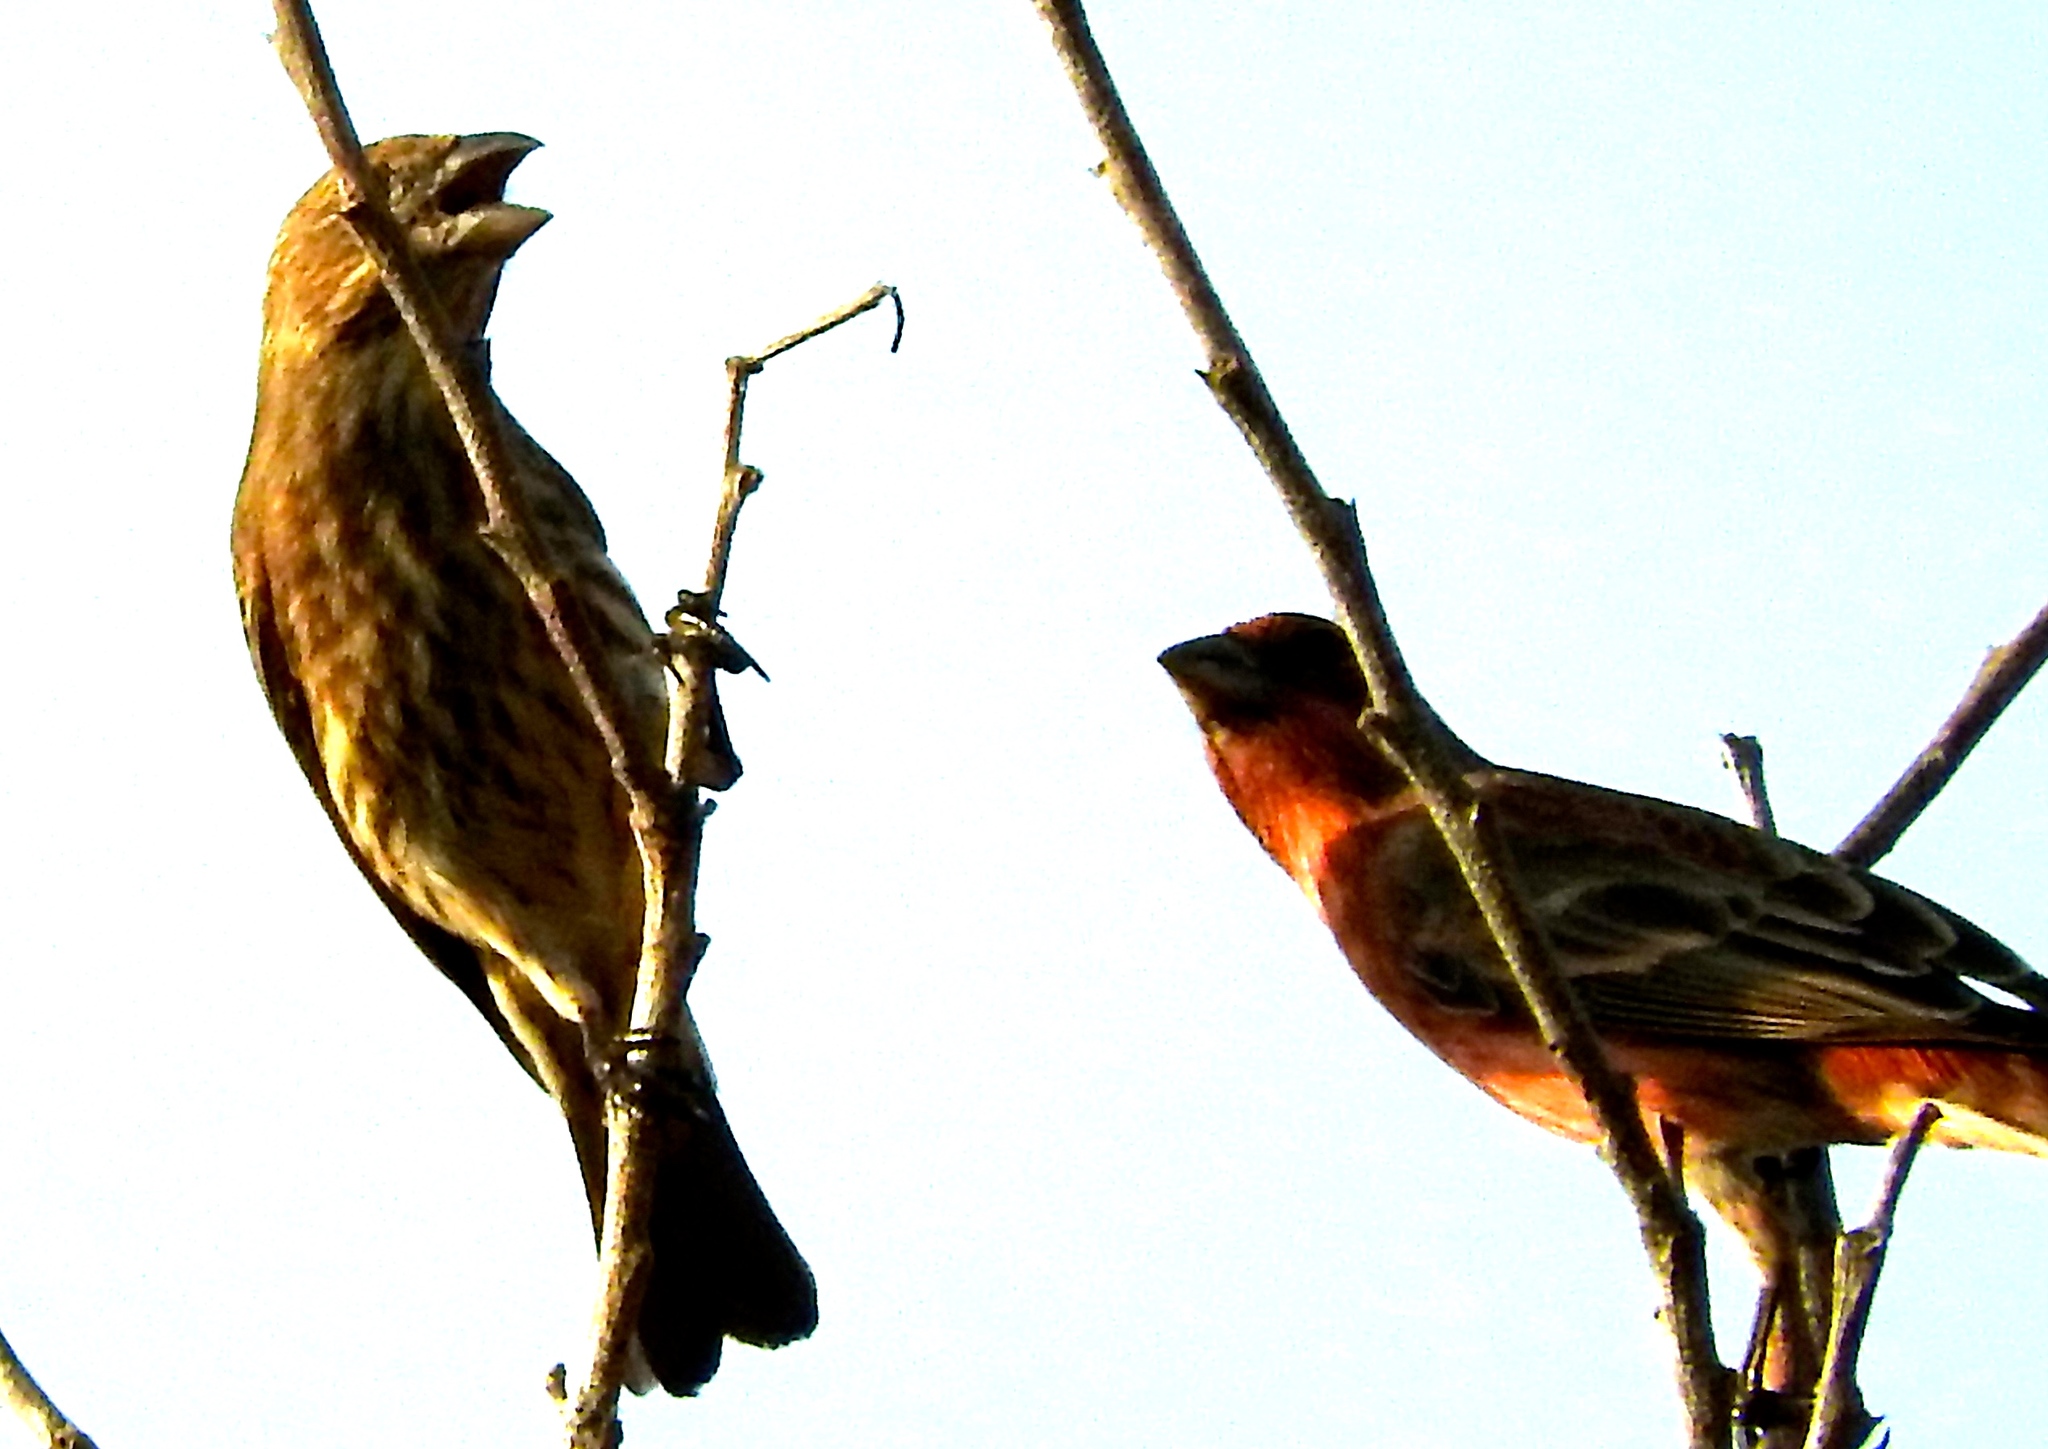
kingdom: Animalia
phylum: Chordata
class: Aves
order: Passeriformes
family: Fringillidae
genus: Haemorhous
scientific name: Haemorhous mexicanus
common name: House finch
